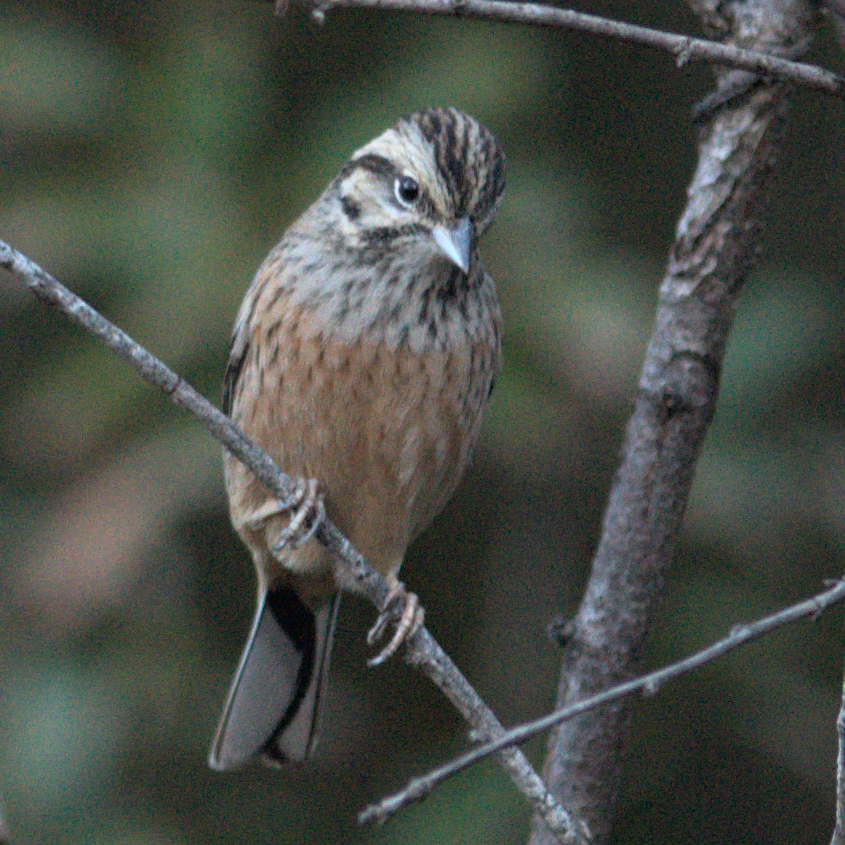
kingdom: Animalia
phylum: Chordata
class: Aves
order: Passeriformes
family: Emberizidae
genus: Emberiza
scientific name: Emberiza cia
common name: Rock bunting
